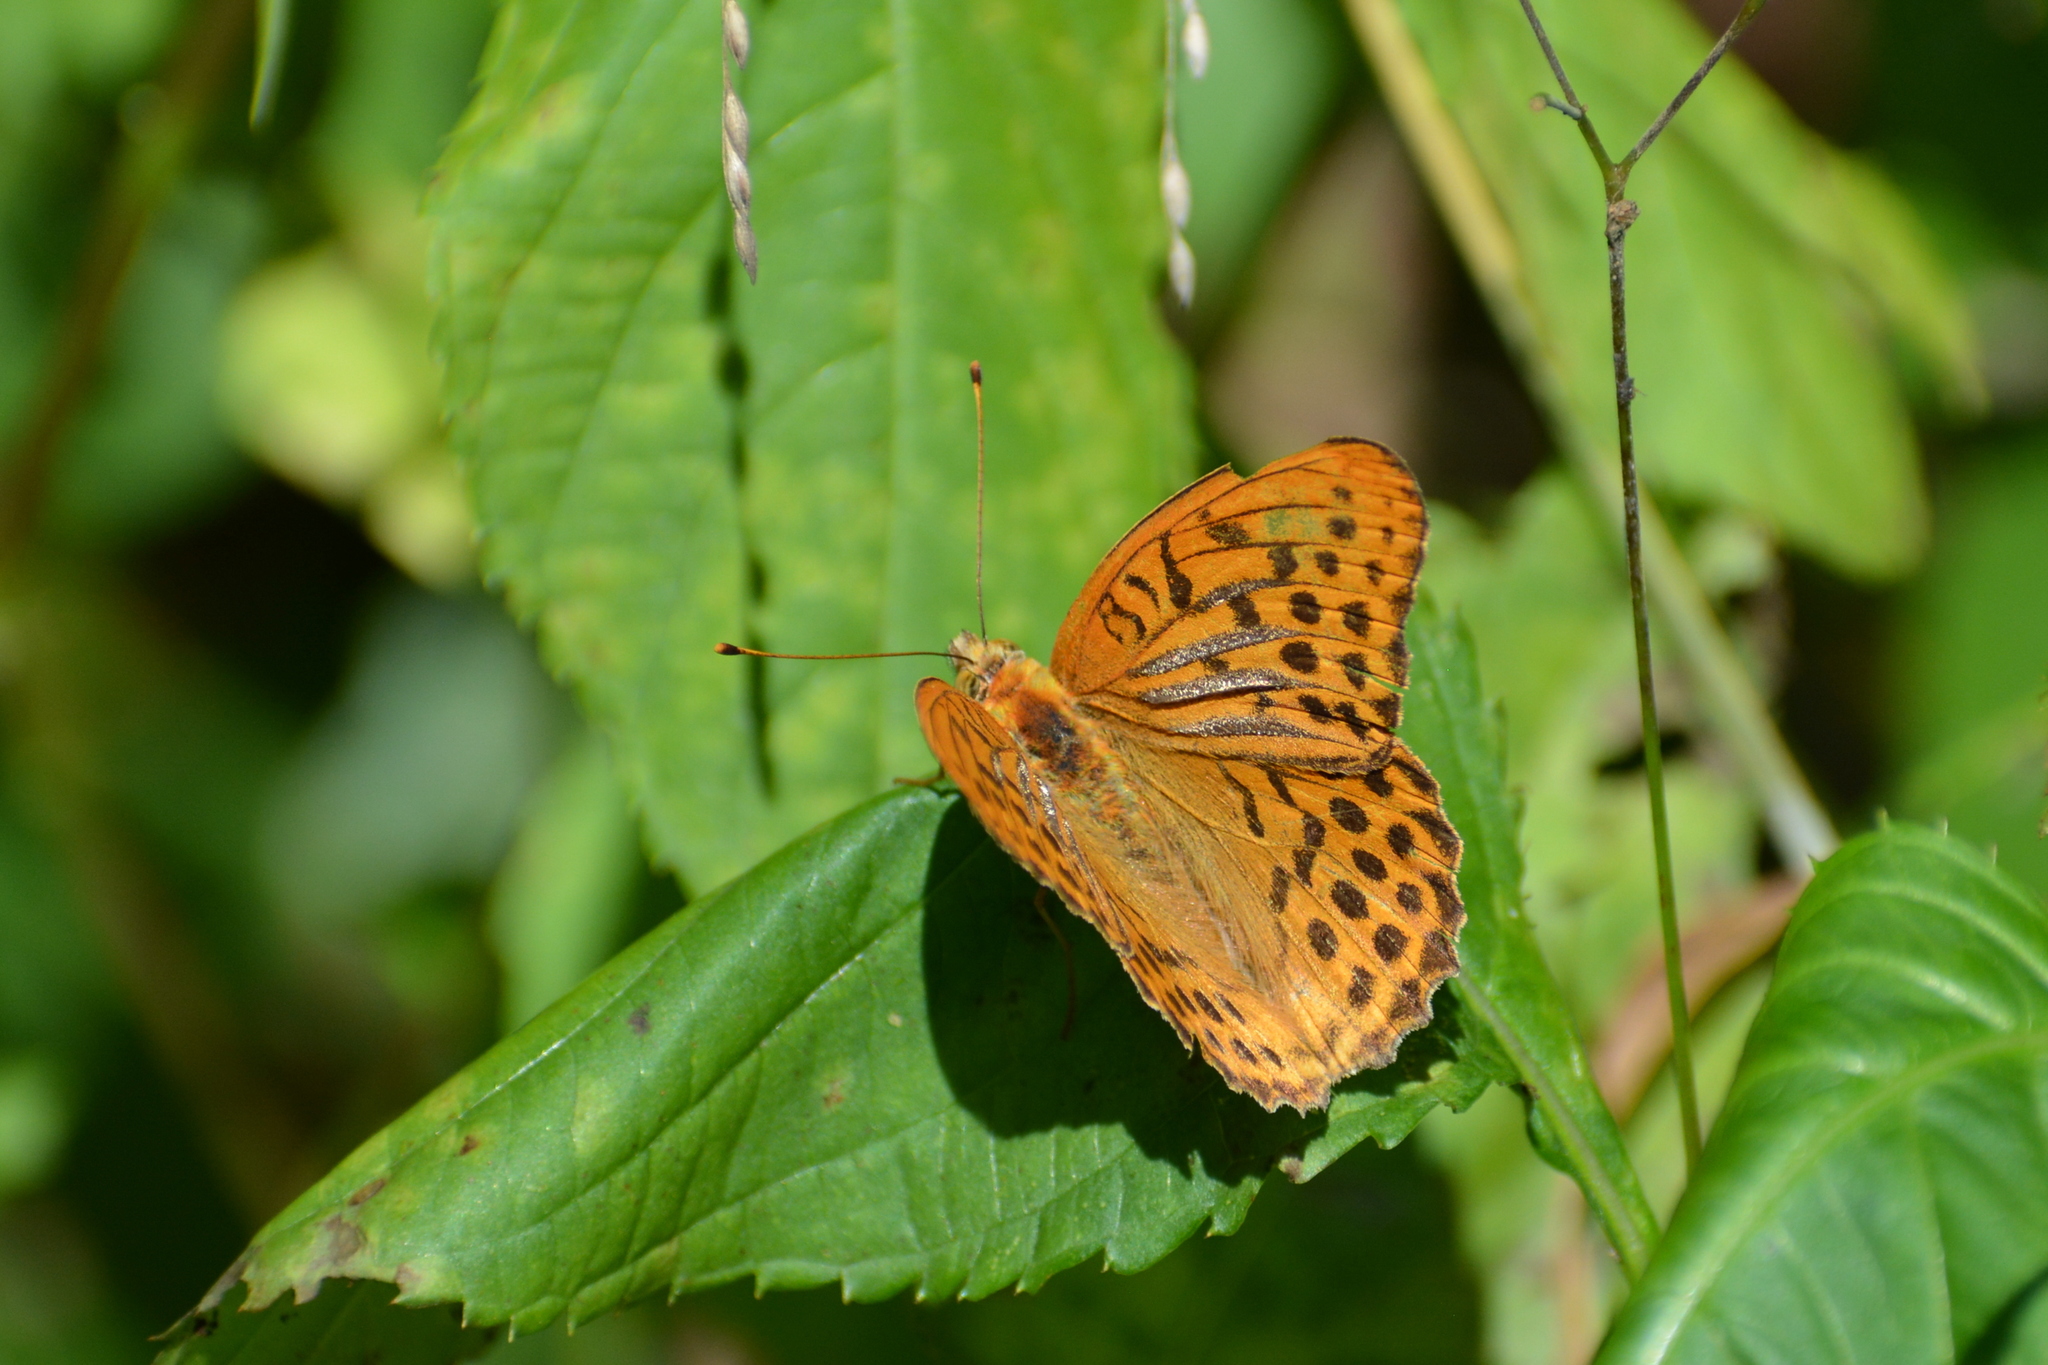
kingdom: Animalia
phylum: Arthropoda
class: Insecta
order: Lepidoptera
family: Nymphalidae
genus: Argynnis
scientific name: Argynnis paphia
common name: Silver-washed fritillary
